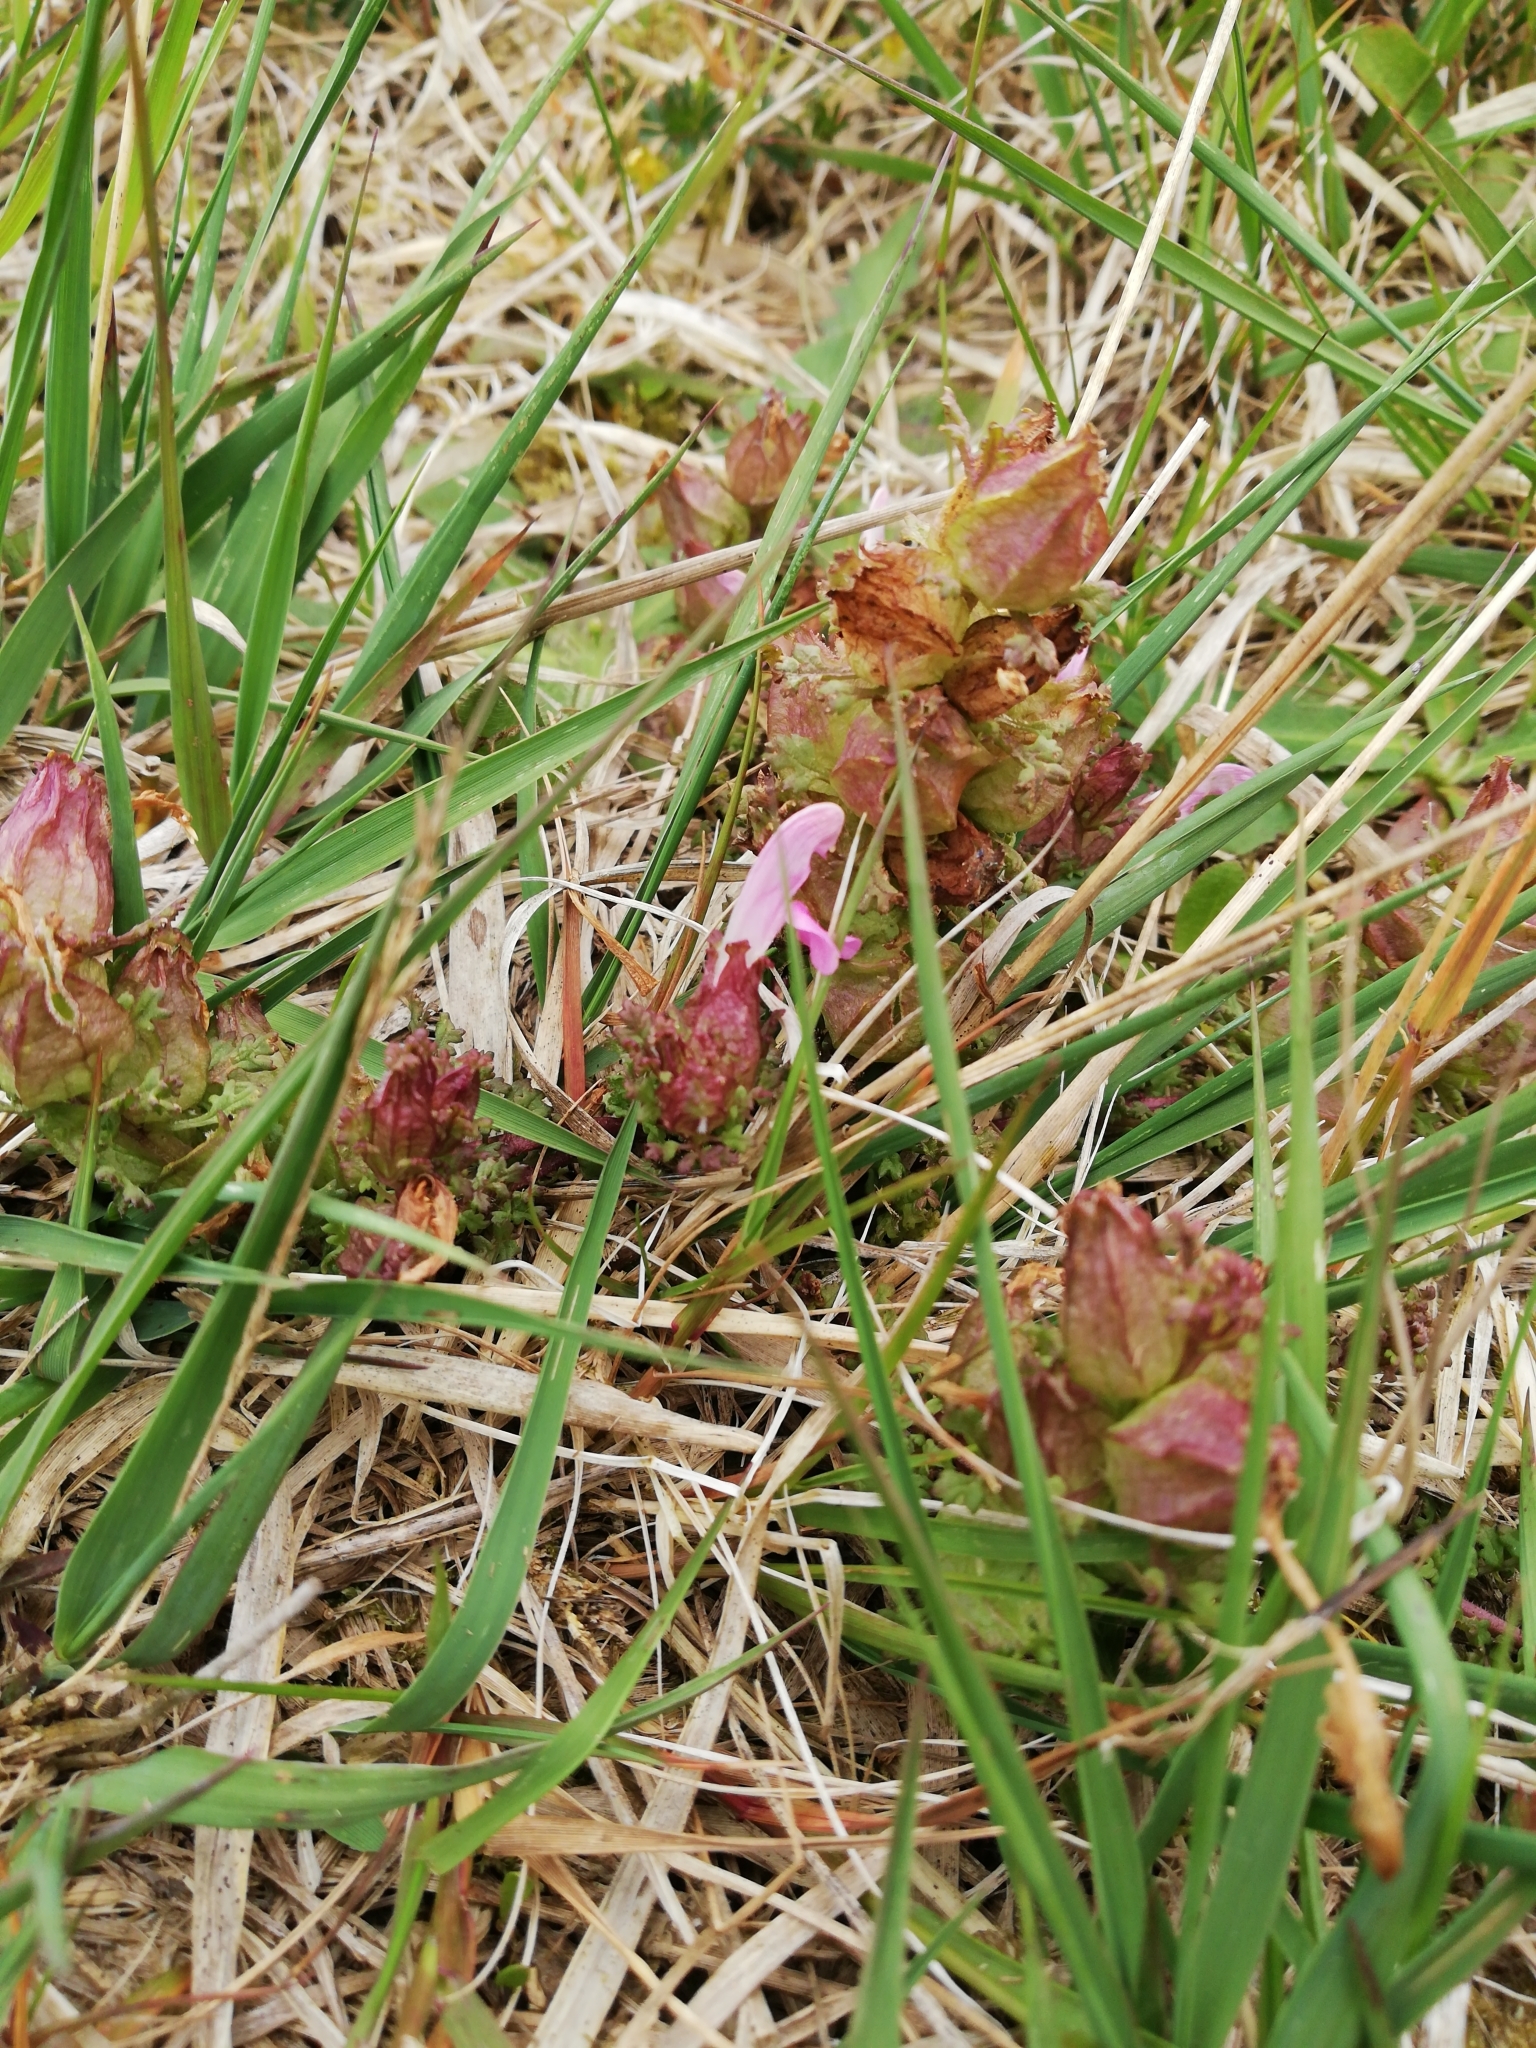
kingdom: Plantae
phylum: Tracheophyta
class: Magnoliopsida
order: Lamiales
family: Orobanchaceae
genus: Pedicularis
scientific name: Pedicularis sylvatica
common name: Lousewort
